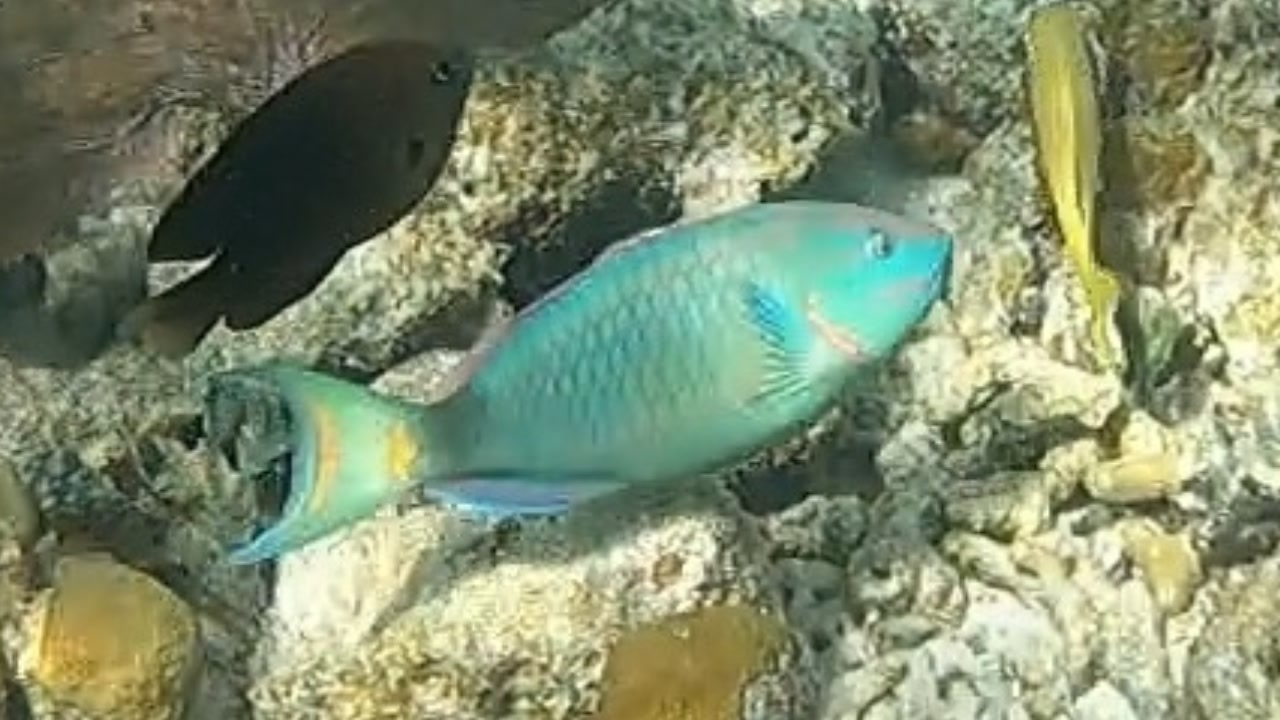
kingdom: Animalia
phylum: Chordata
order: Perciformes
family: Scaridae
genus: Sparisoma
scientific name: Sparisoma viride
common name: Stoplight parrotfish
